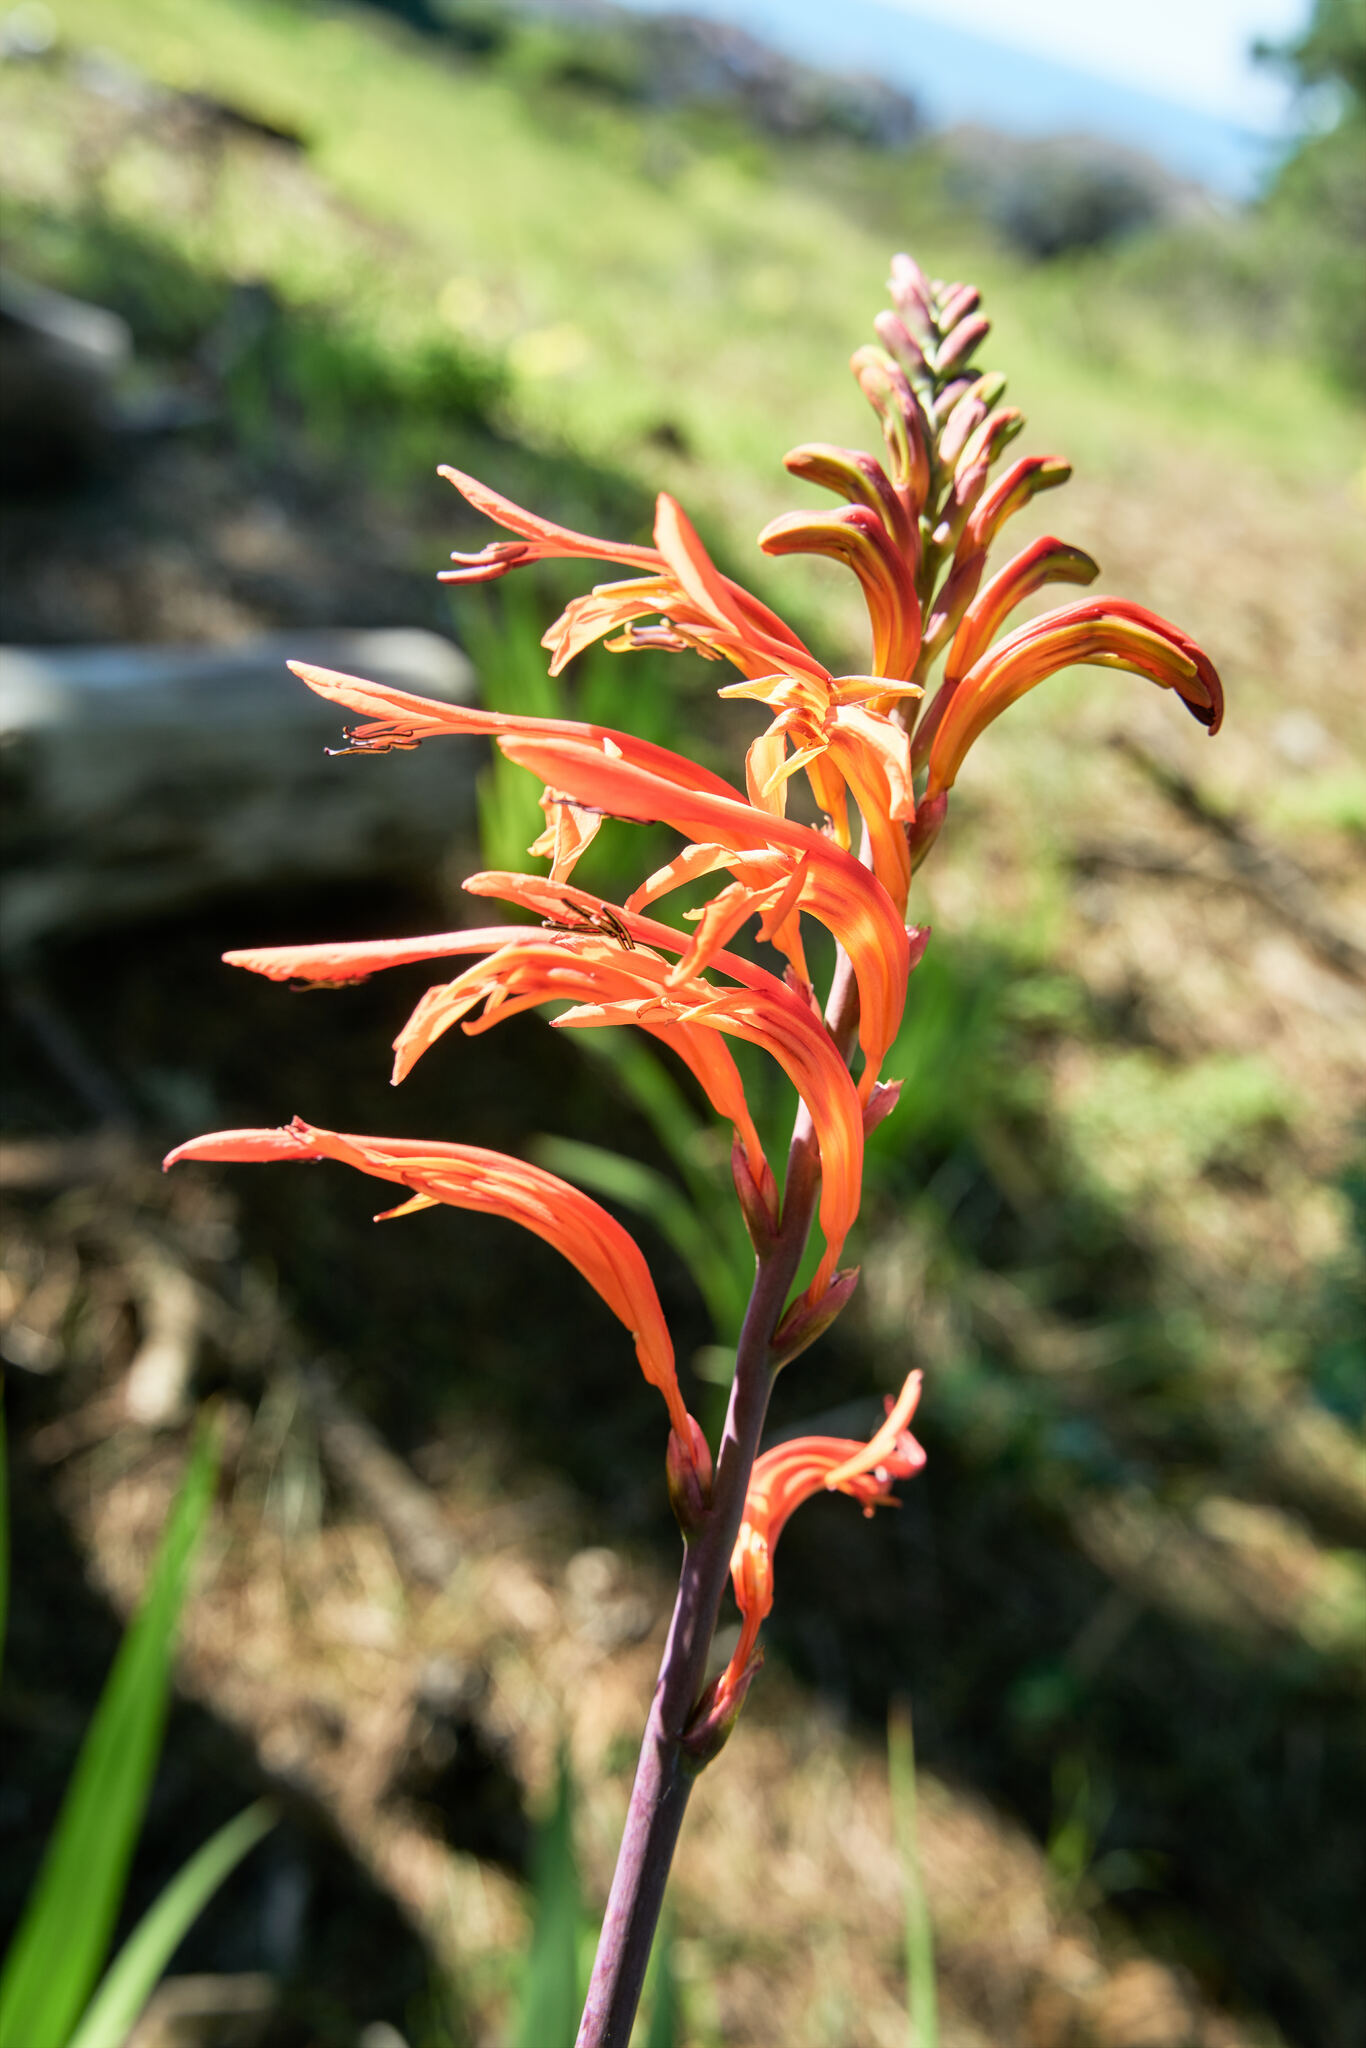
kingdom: Plantae
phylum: Tracheophyta
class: Liliopsida
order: Asparagales
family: Iridaceae
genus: Chasmanthe
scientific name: Chasmanthe floribunda
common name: African cornflag
